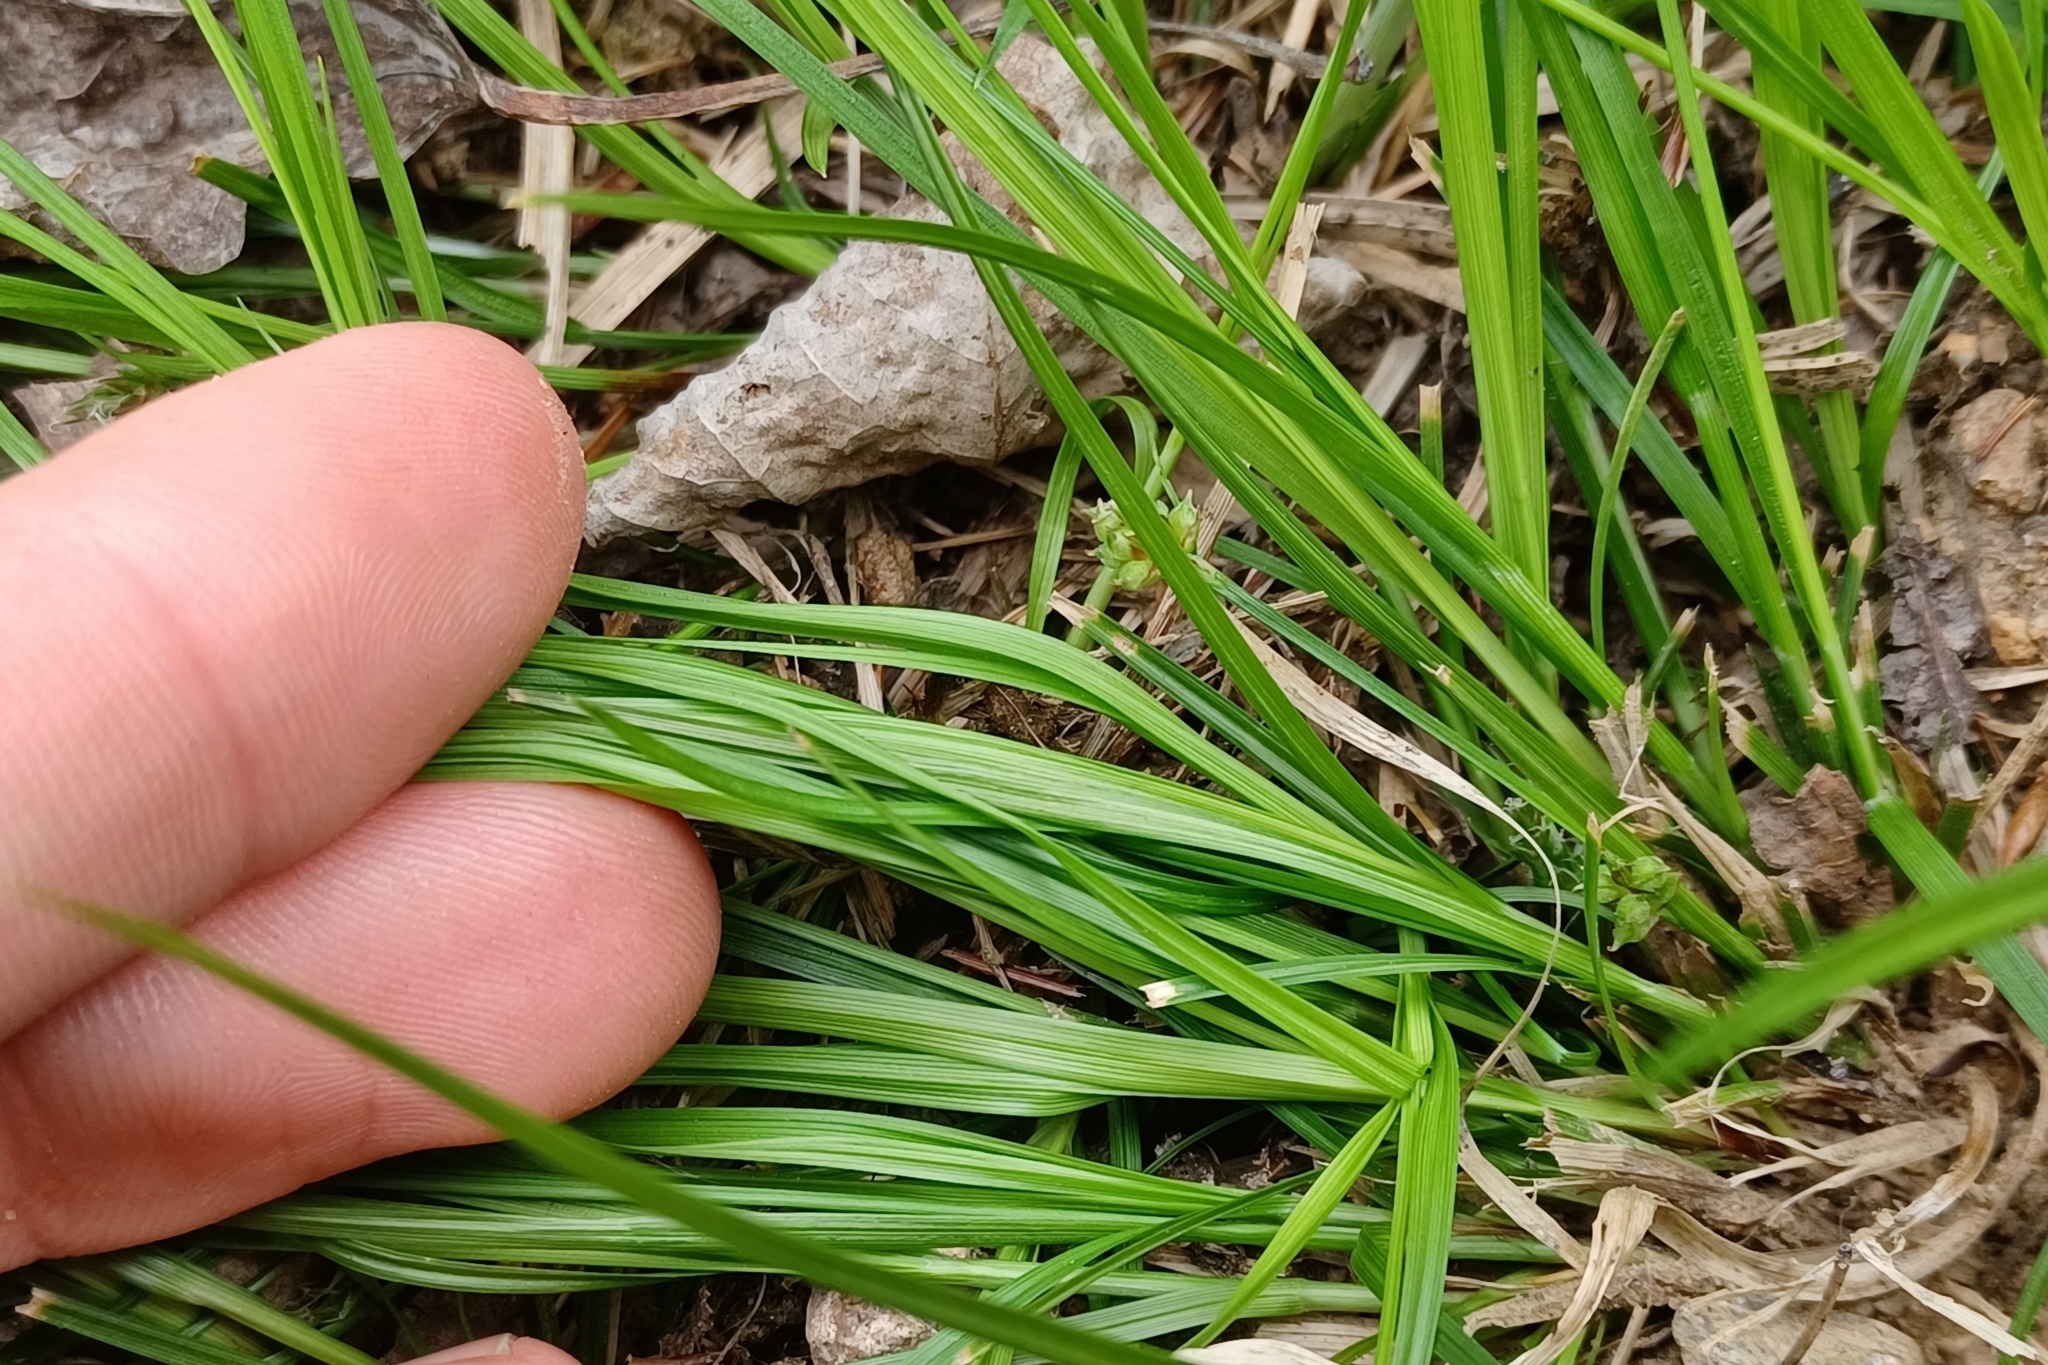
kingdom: Plantae
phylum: Tracheophyta
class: Liliopsida
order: Poales
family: Cyperaceae
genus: Carex
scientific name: Carex deflexa
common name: Bent northern sedge
